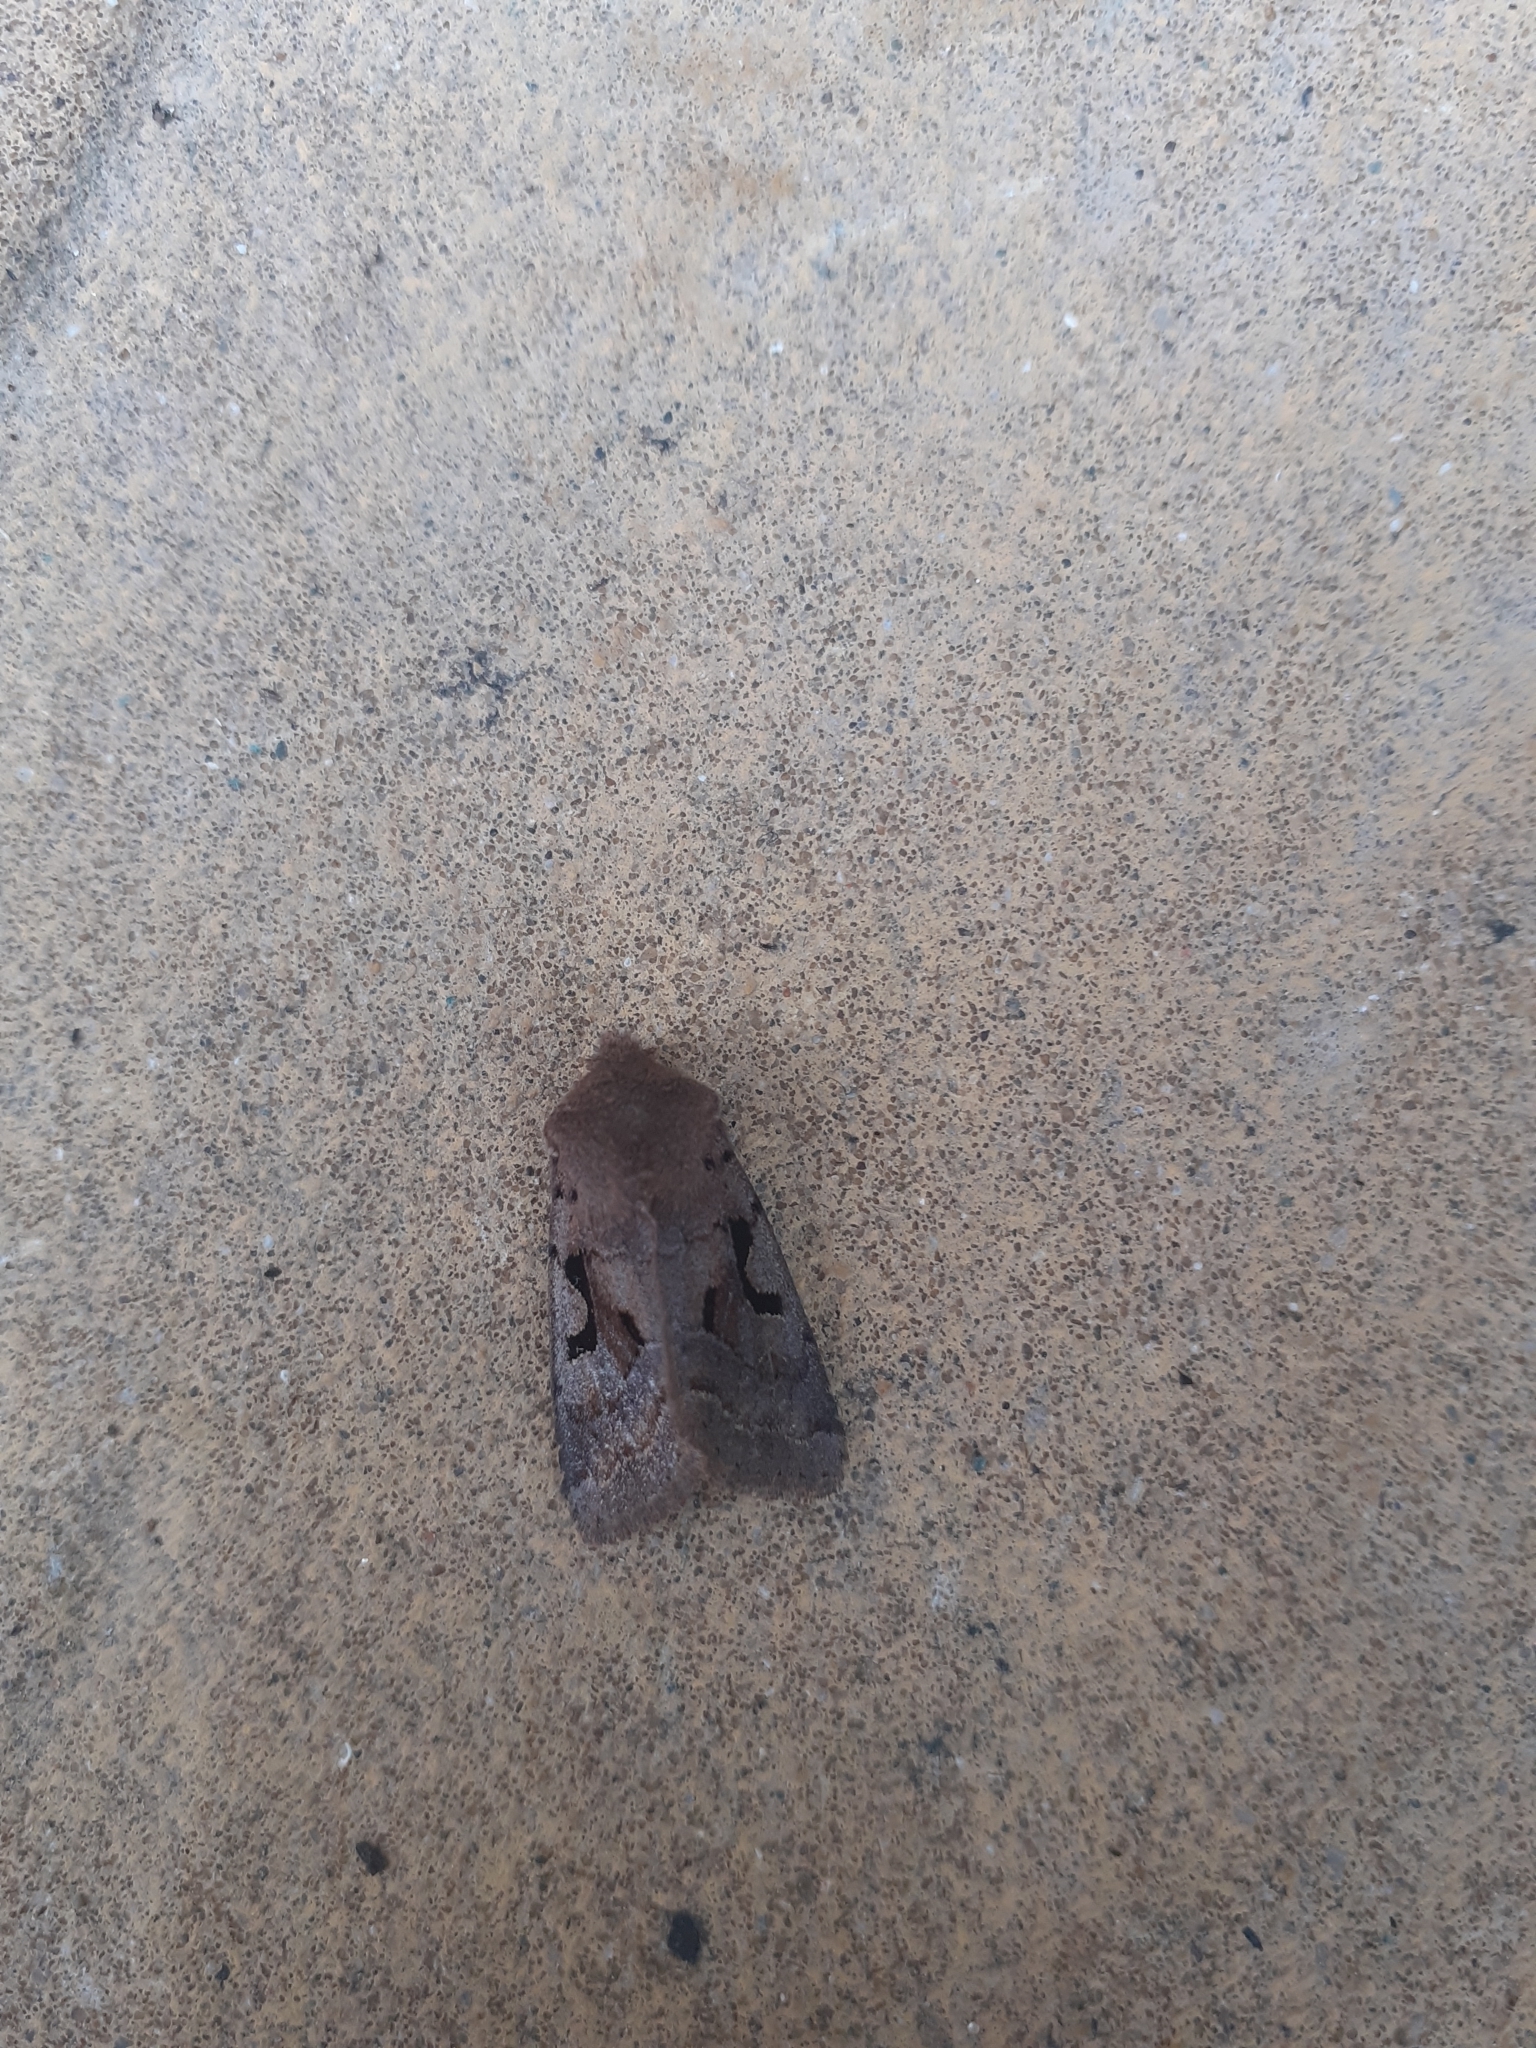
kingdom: Animalia
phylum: Arthropoda
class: Insecta
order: Lepidoptera
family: Noctuidae
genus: Orthosia
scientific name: Orthosia gothica
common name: Hebrew character
